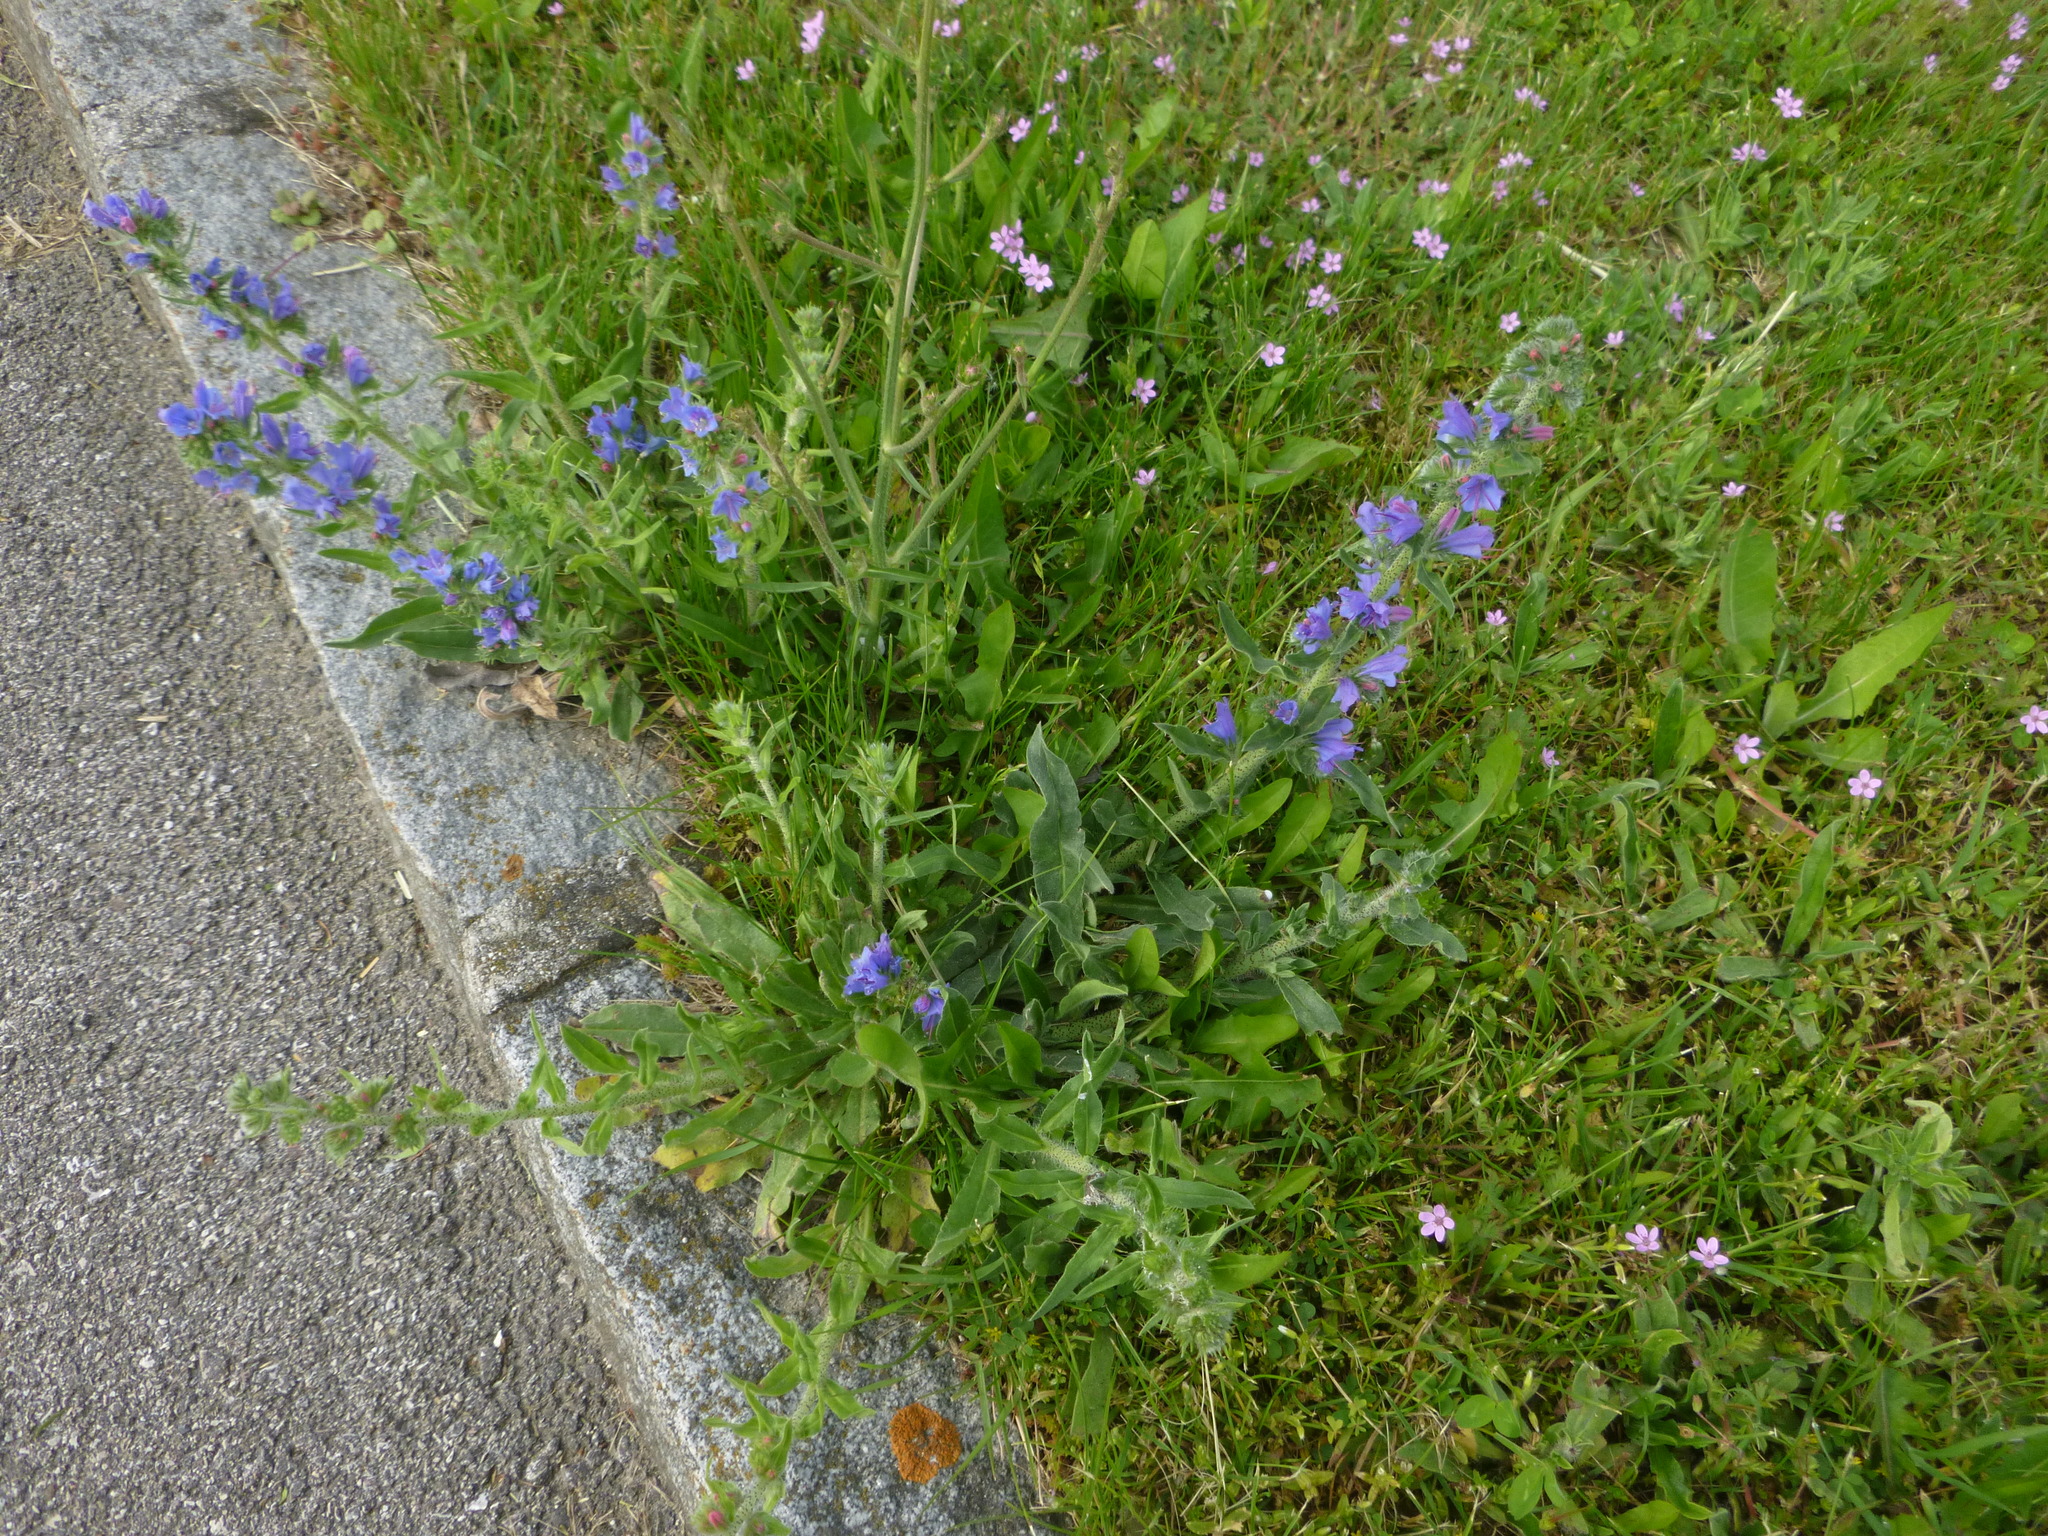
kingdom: Plantae
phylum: Tracheophyta
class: Magnoliopsida
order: Boraginales
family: Boraginaceae
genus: Echium
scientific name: Echium vulgare
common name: Common viper's bugloss
